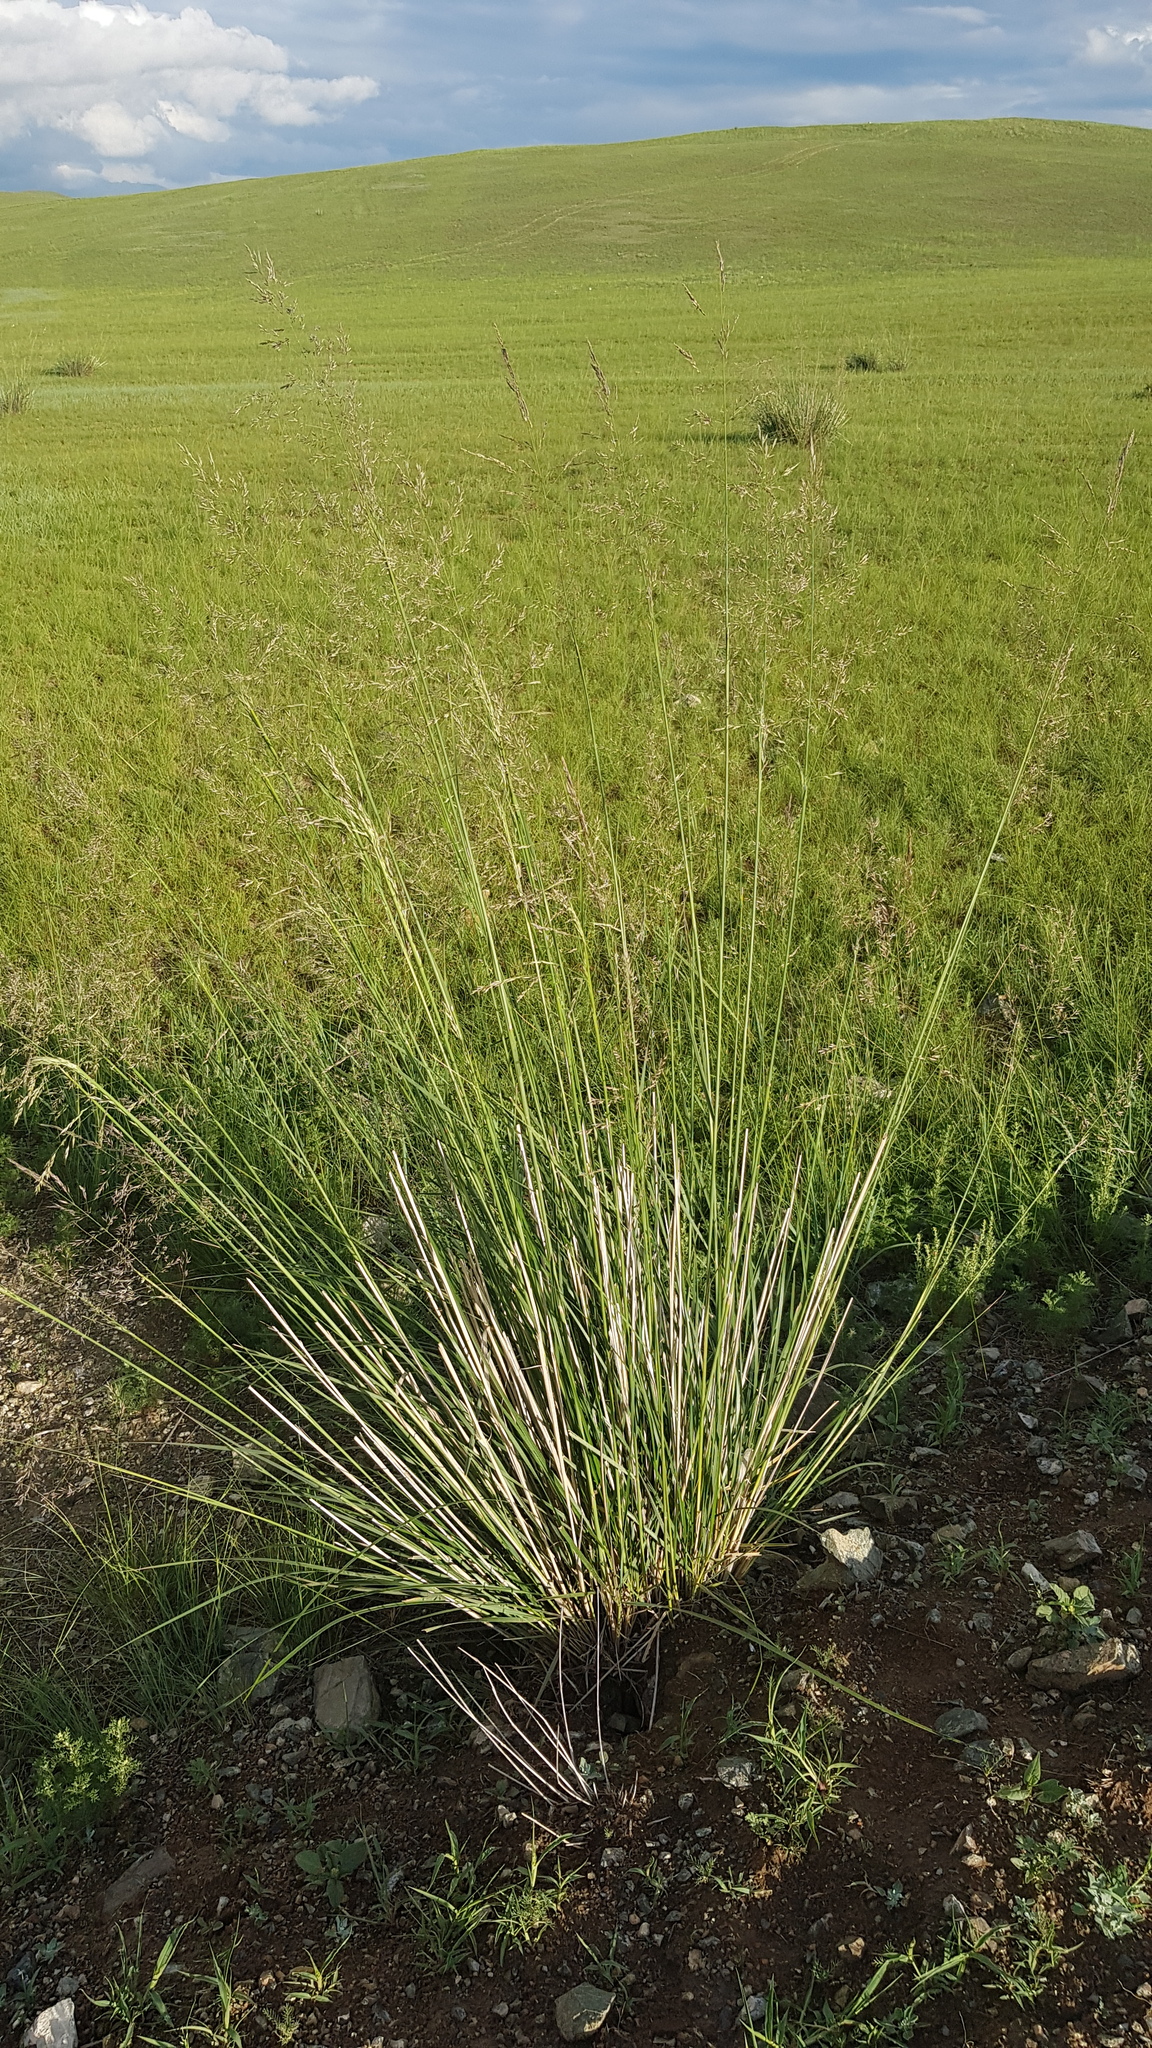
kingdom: Plantae
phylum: Tracheophyta
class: Liliopsida
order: Poales
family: Poaceae
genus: Neotrinia
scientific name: Neotrinia splendens
